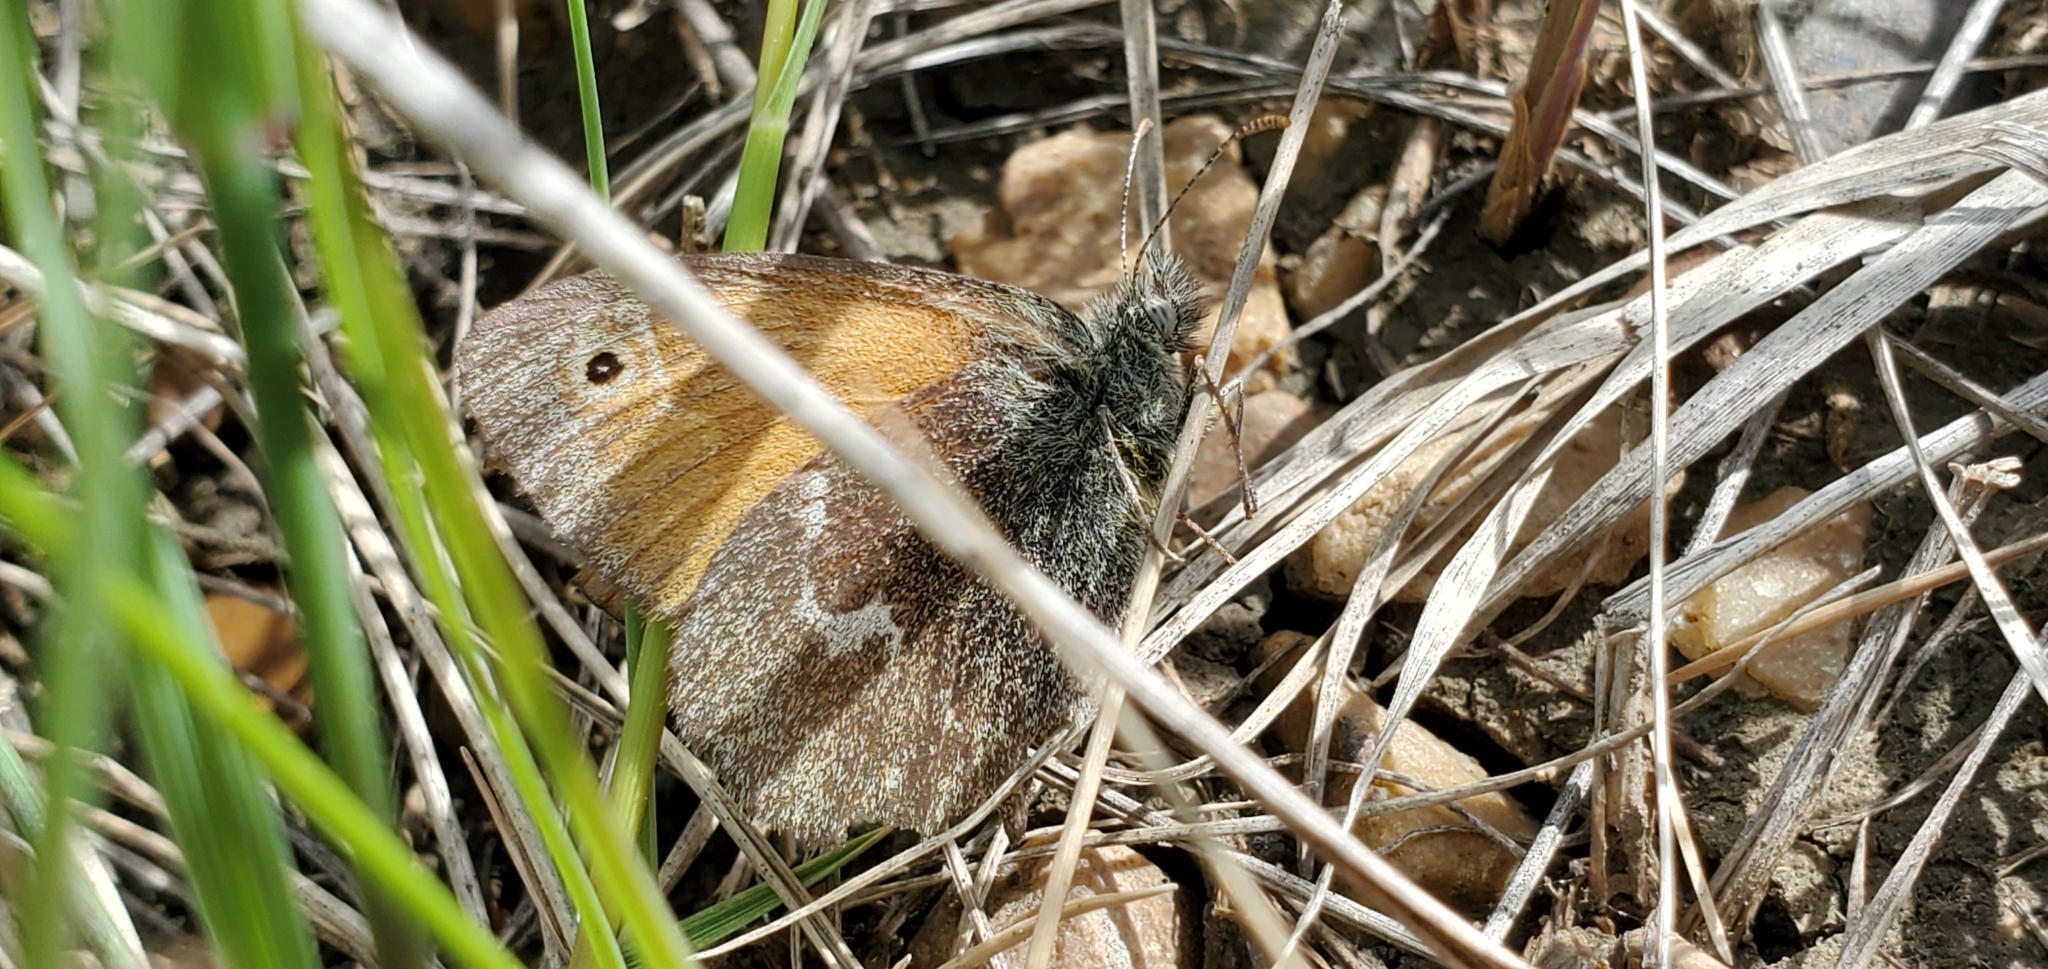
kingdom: Animalia
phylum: Arthropoda
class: Insecta
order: Lepidoptera
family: Nymphalidae
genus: Coenonympha
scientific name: Coenonympha california
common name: Common ringlet
